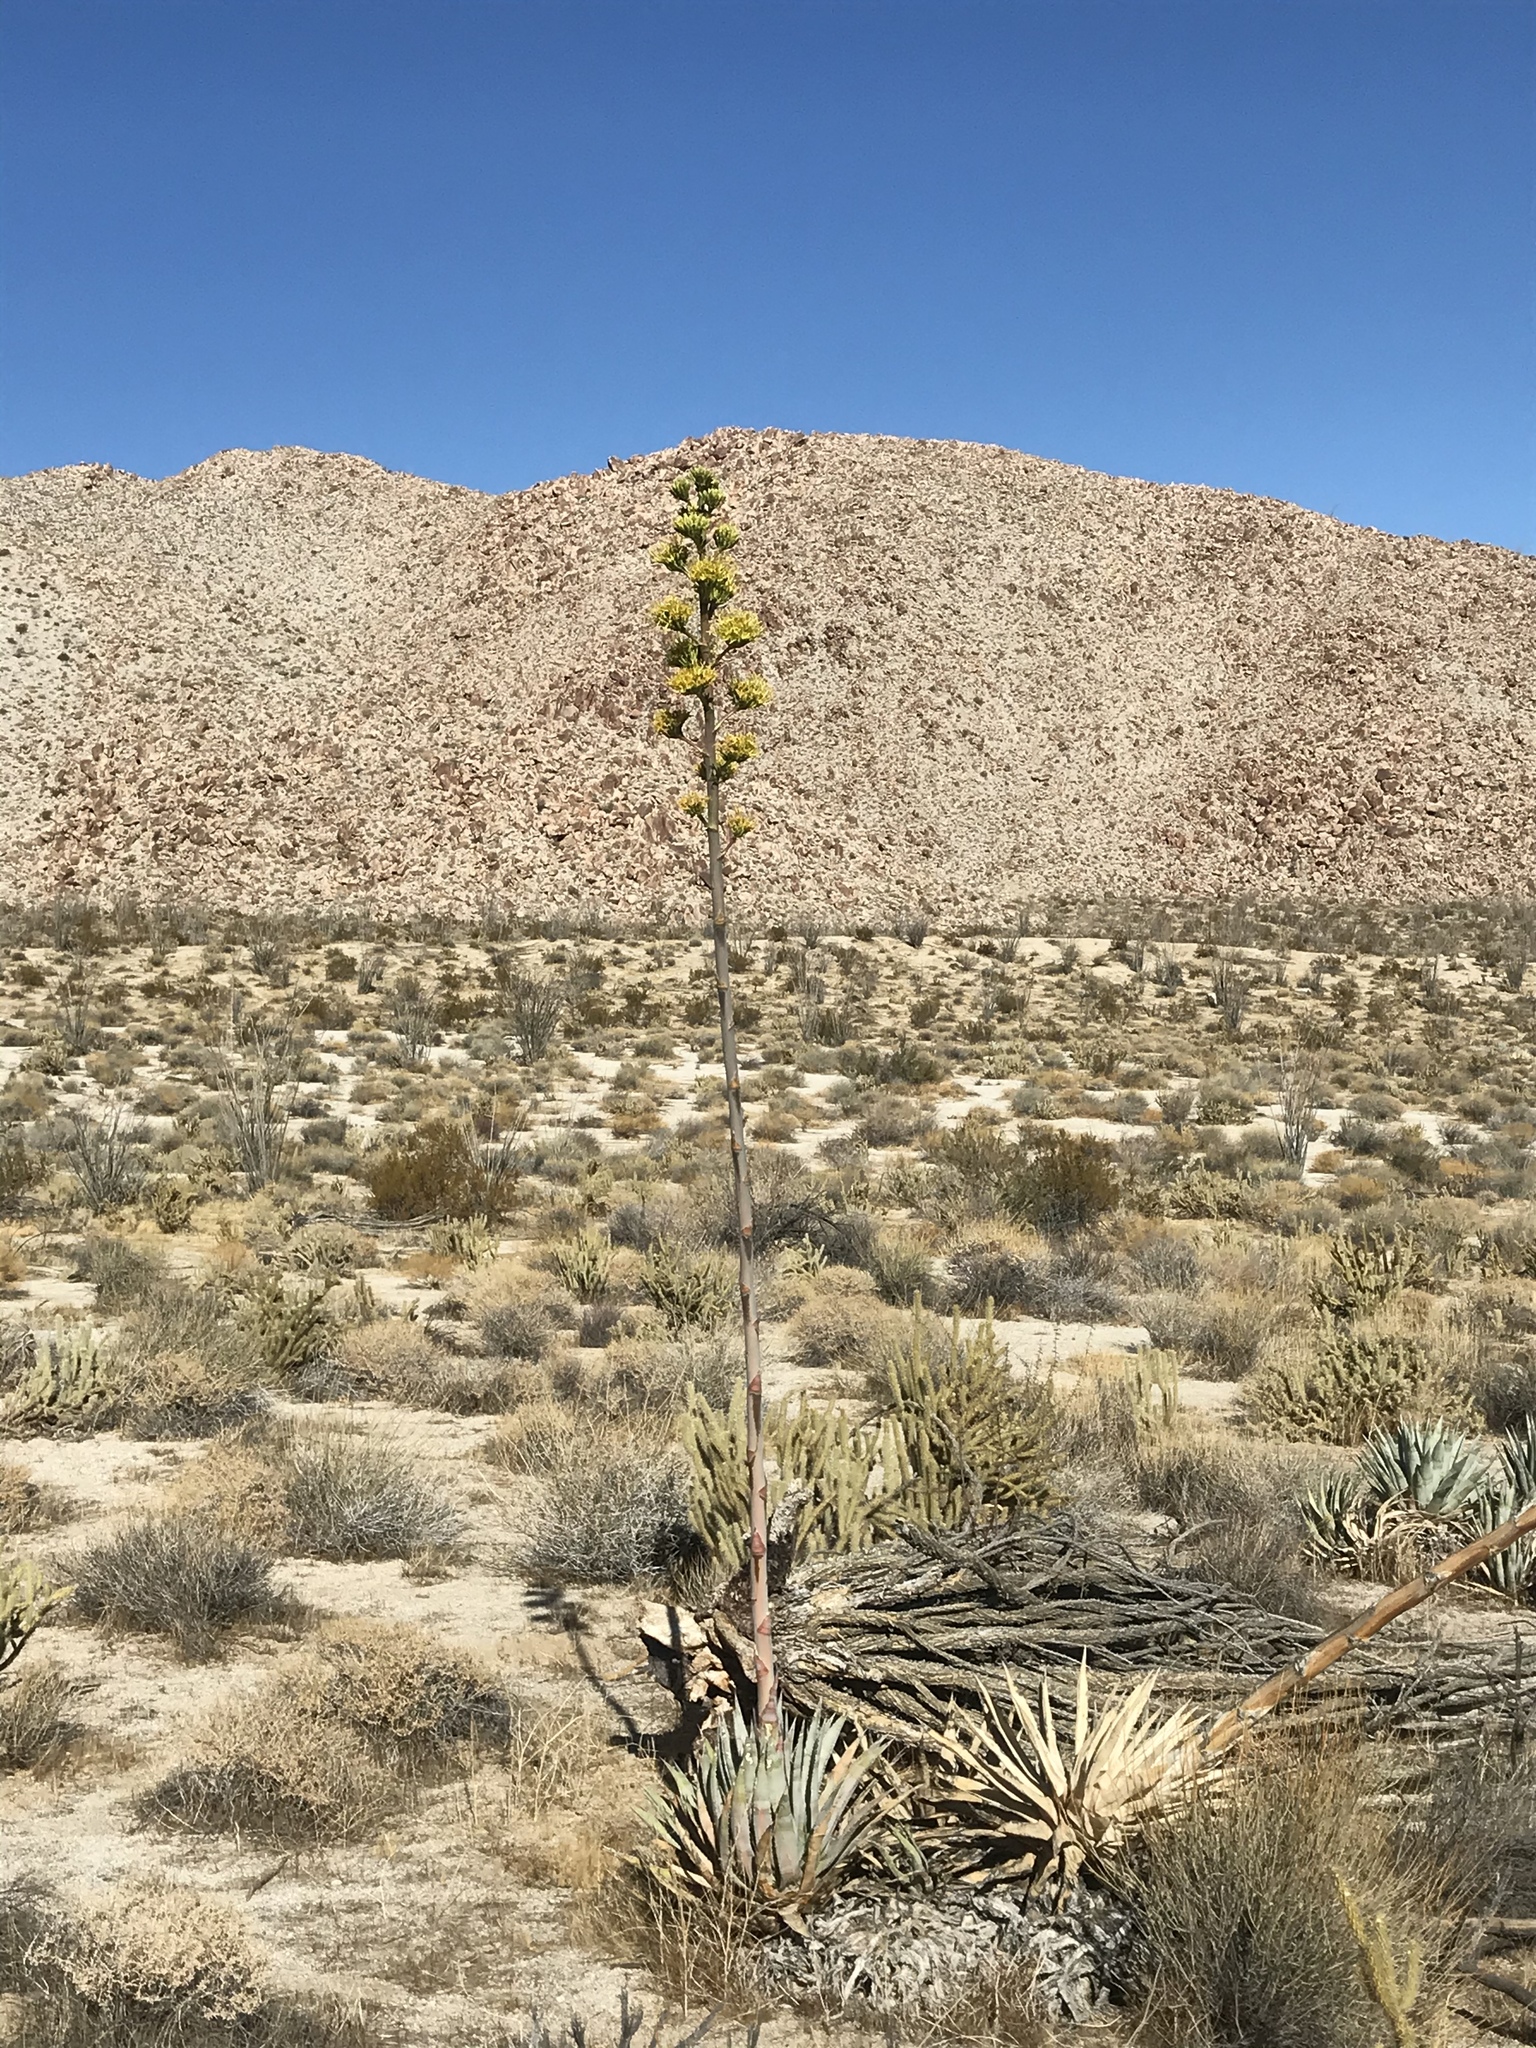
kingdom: Plantae
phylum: Tracheophyta
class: Liliopsida
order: Asparagales
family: Asparagaceae
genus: Agave
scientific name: Agave deserti
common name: Desert agave
